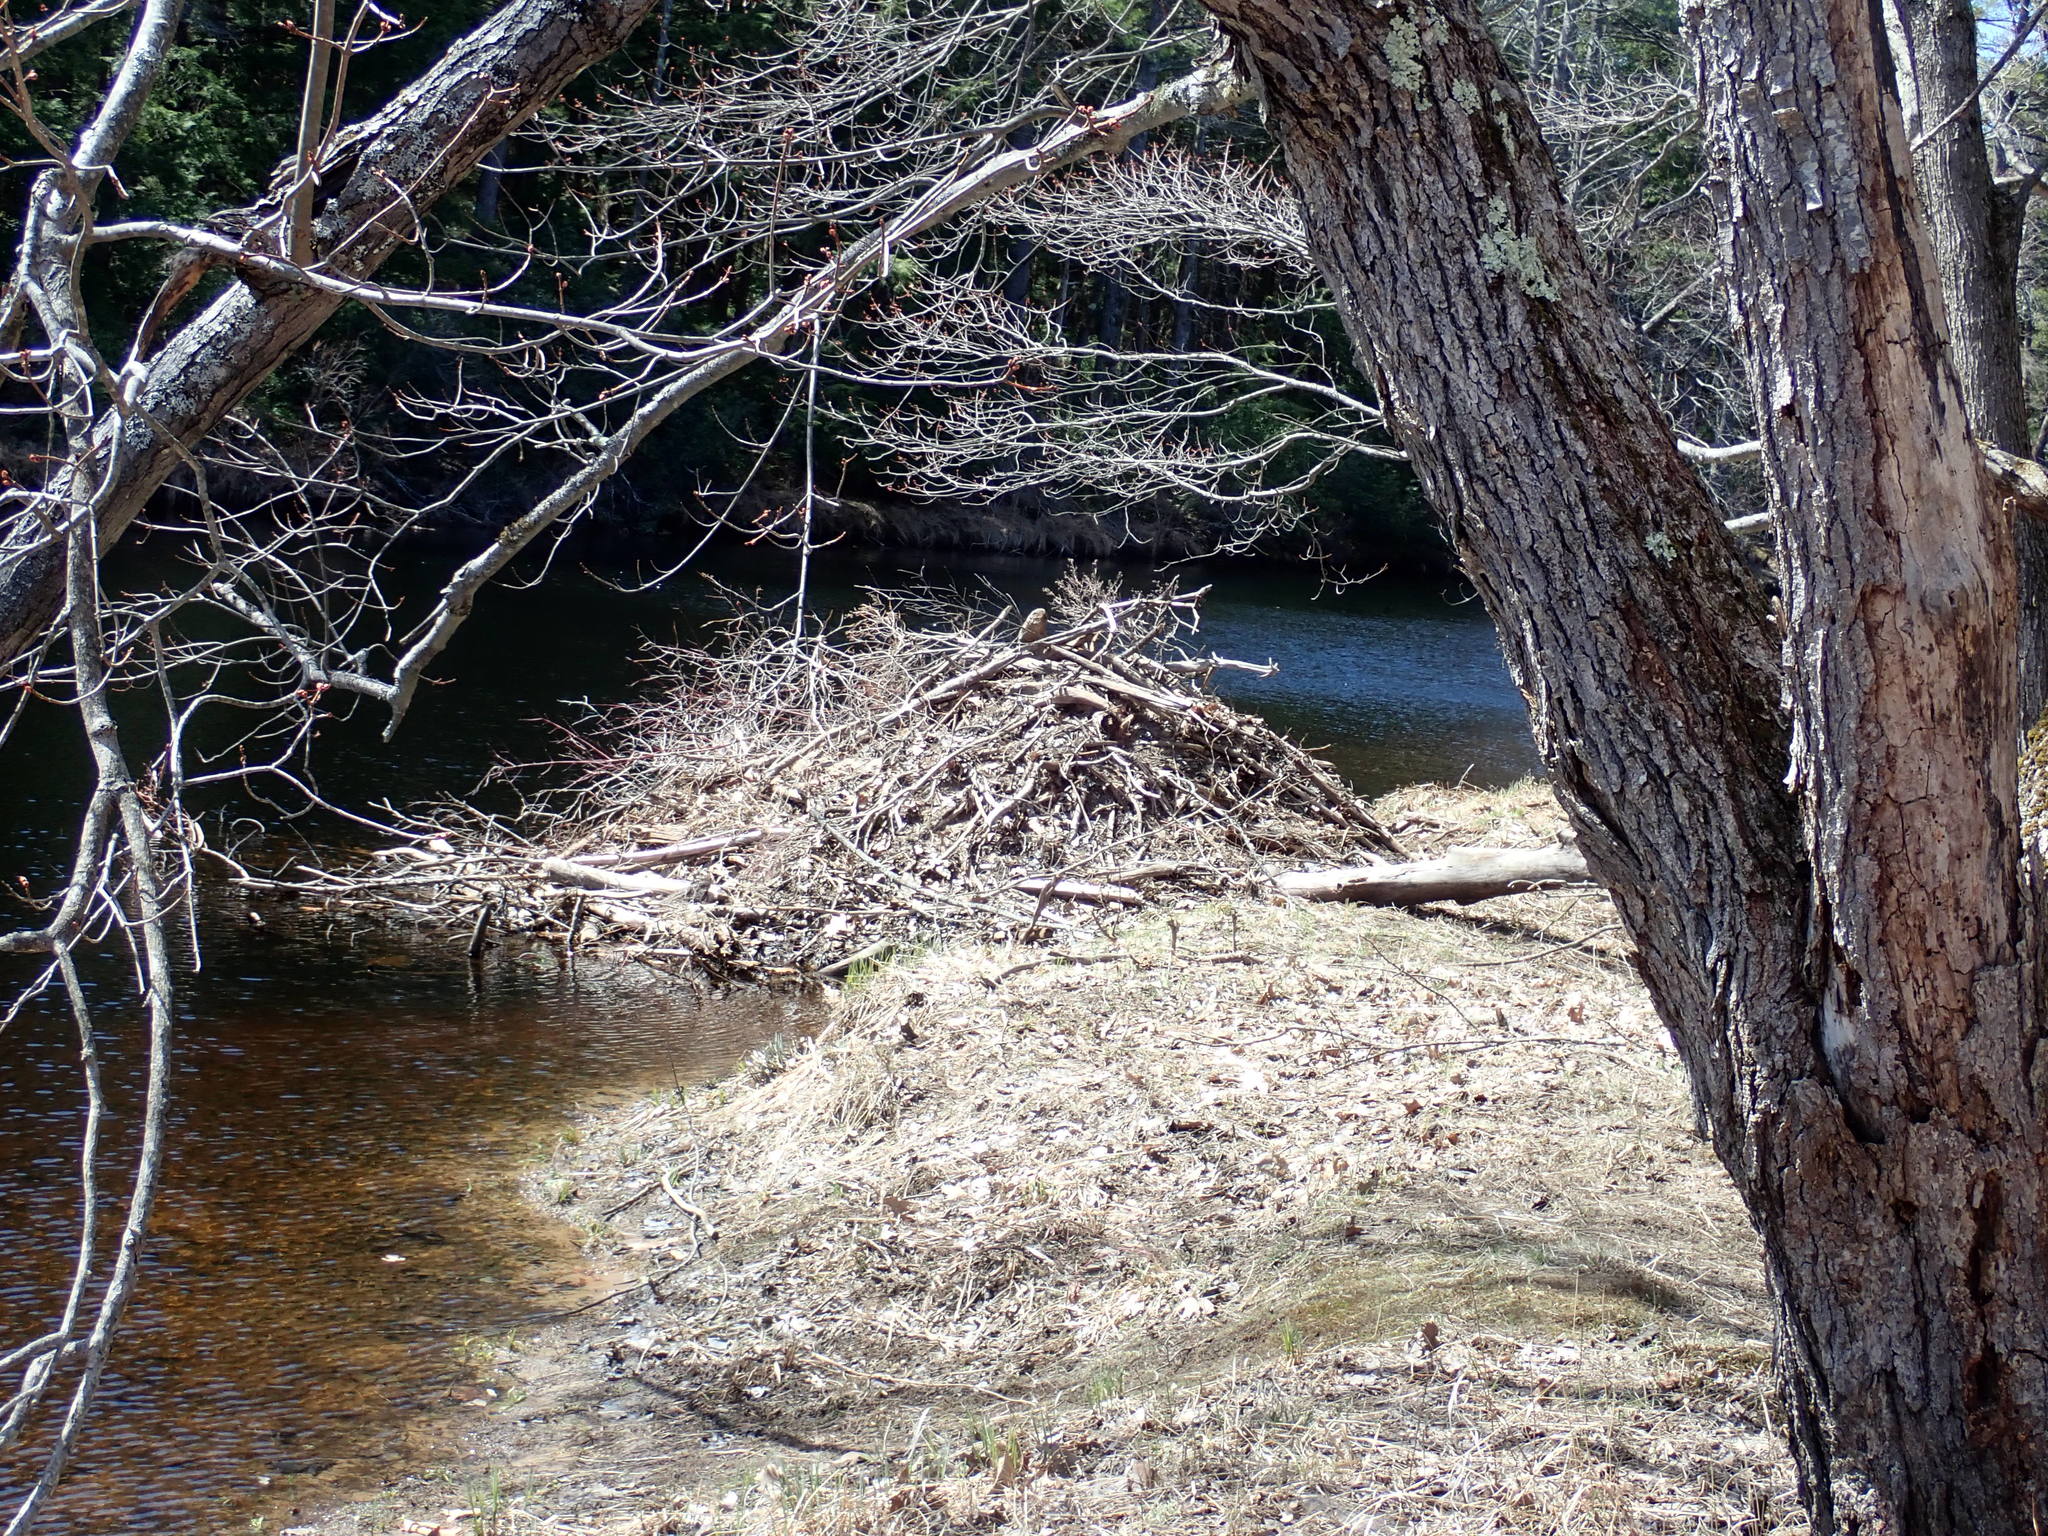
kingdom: Animalia
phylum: Chordata
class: Mammalia
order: Rodentia
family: Castoridae
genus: Castor
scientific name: Castor canadensis
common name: American beaver
